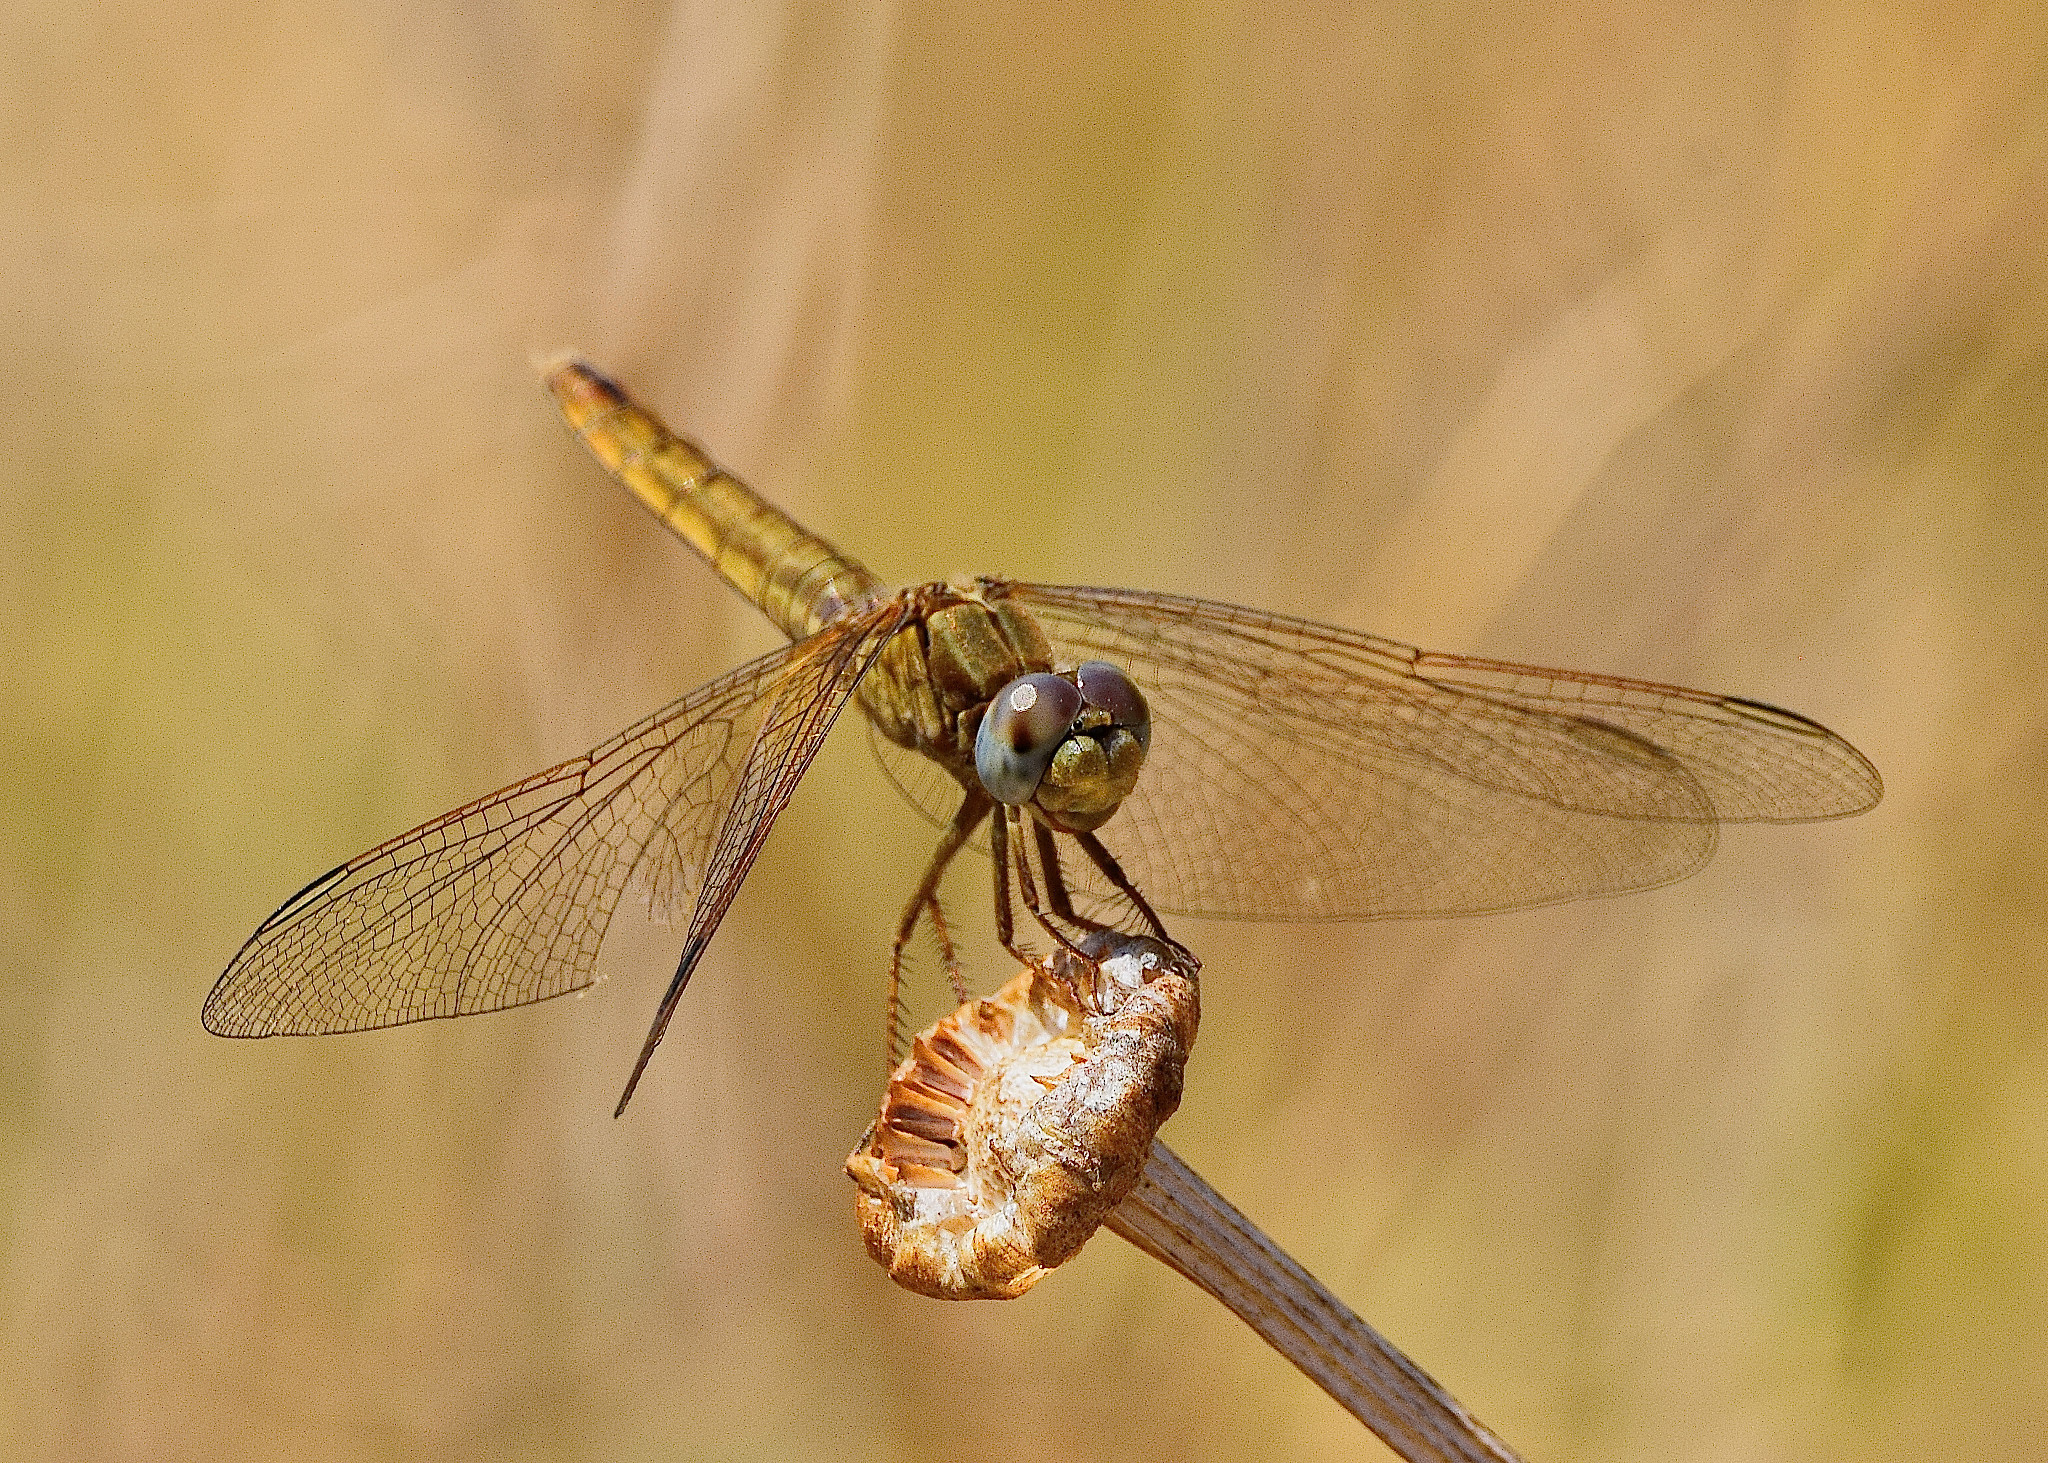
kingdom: Animalia
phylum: Arthropoda
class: Insecta
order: Odonata
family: Libellulidae
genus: Crocothemis
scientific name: Crocothemis erythraea
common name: Scarlet dragonfly
